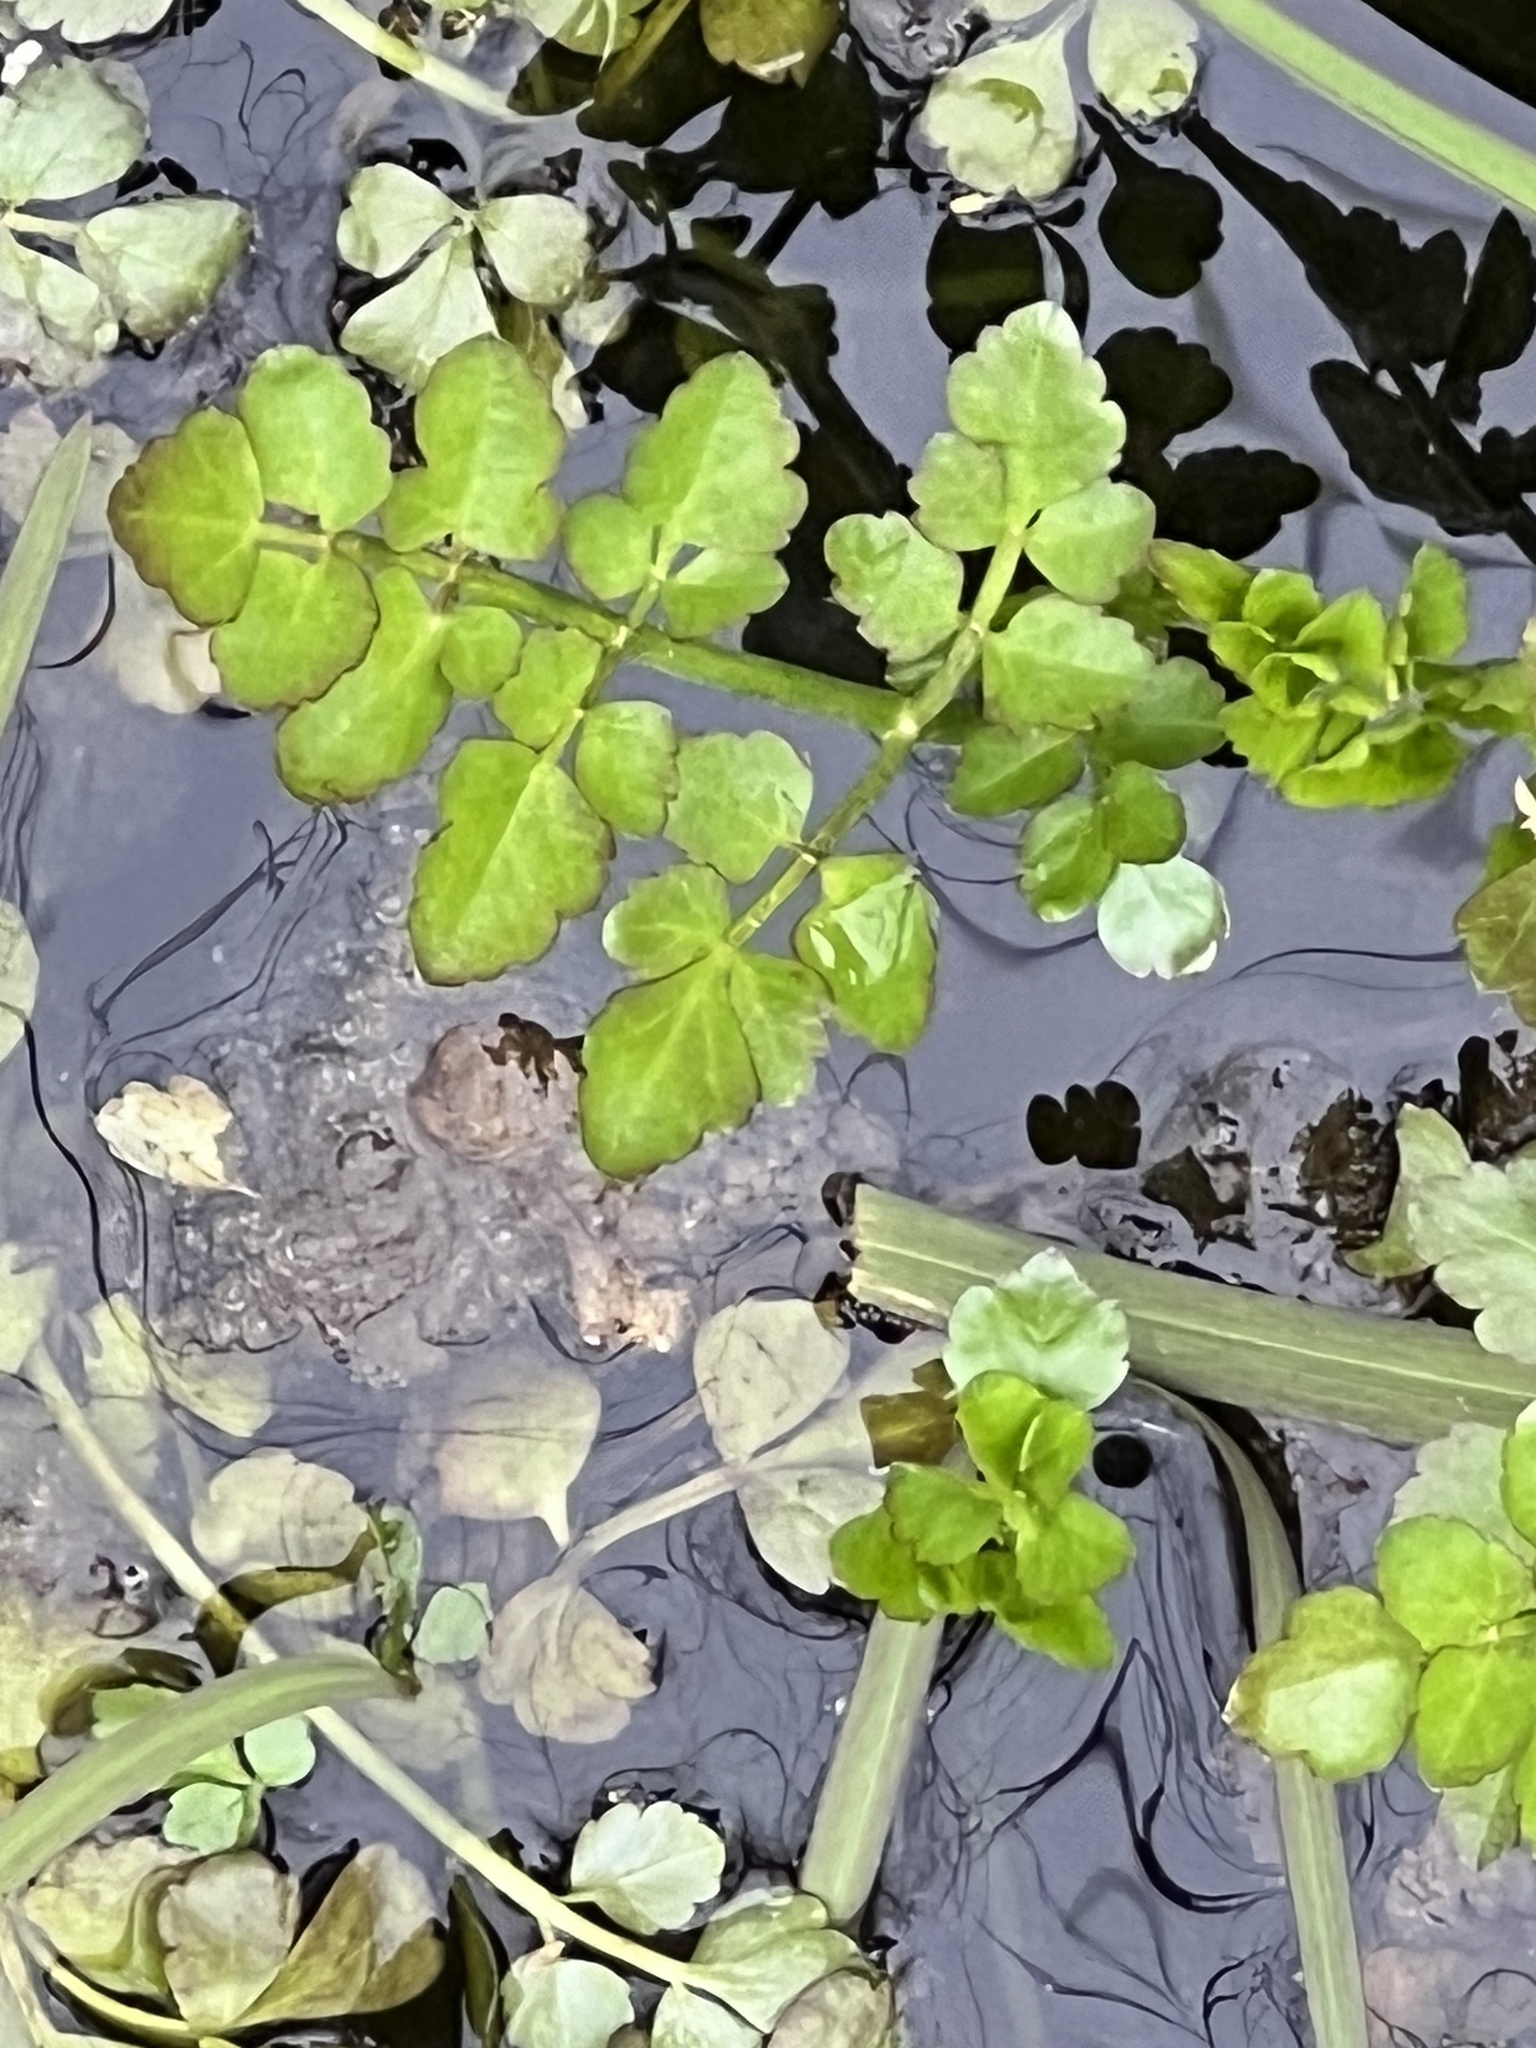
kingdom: Plantae
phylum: Tracheophyta
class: Magnoliopsida
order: Apiales
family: Apiaceae
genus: Oenanthe
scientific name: Oenanthe javanica
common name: Java water-dropwort
